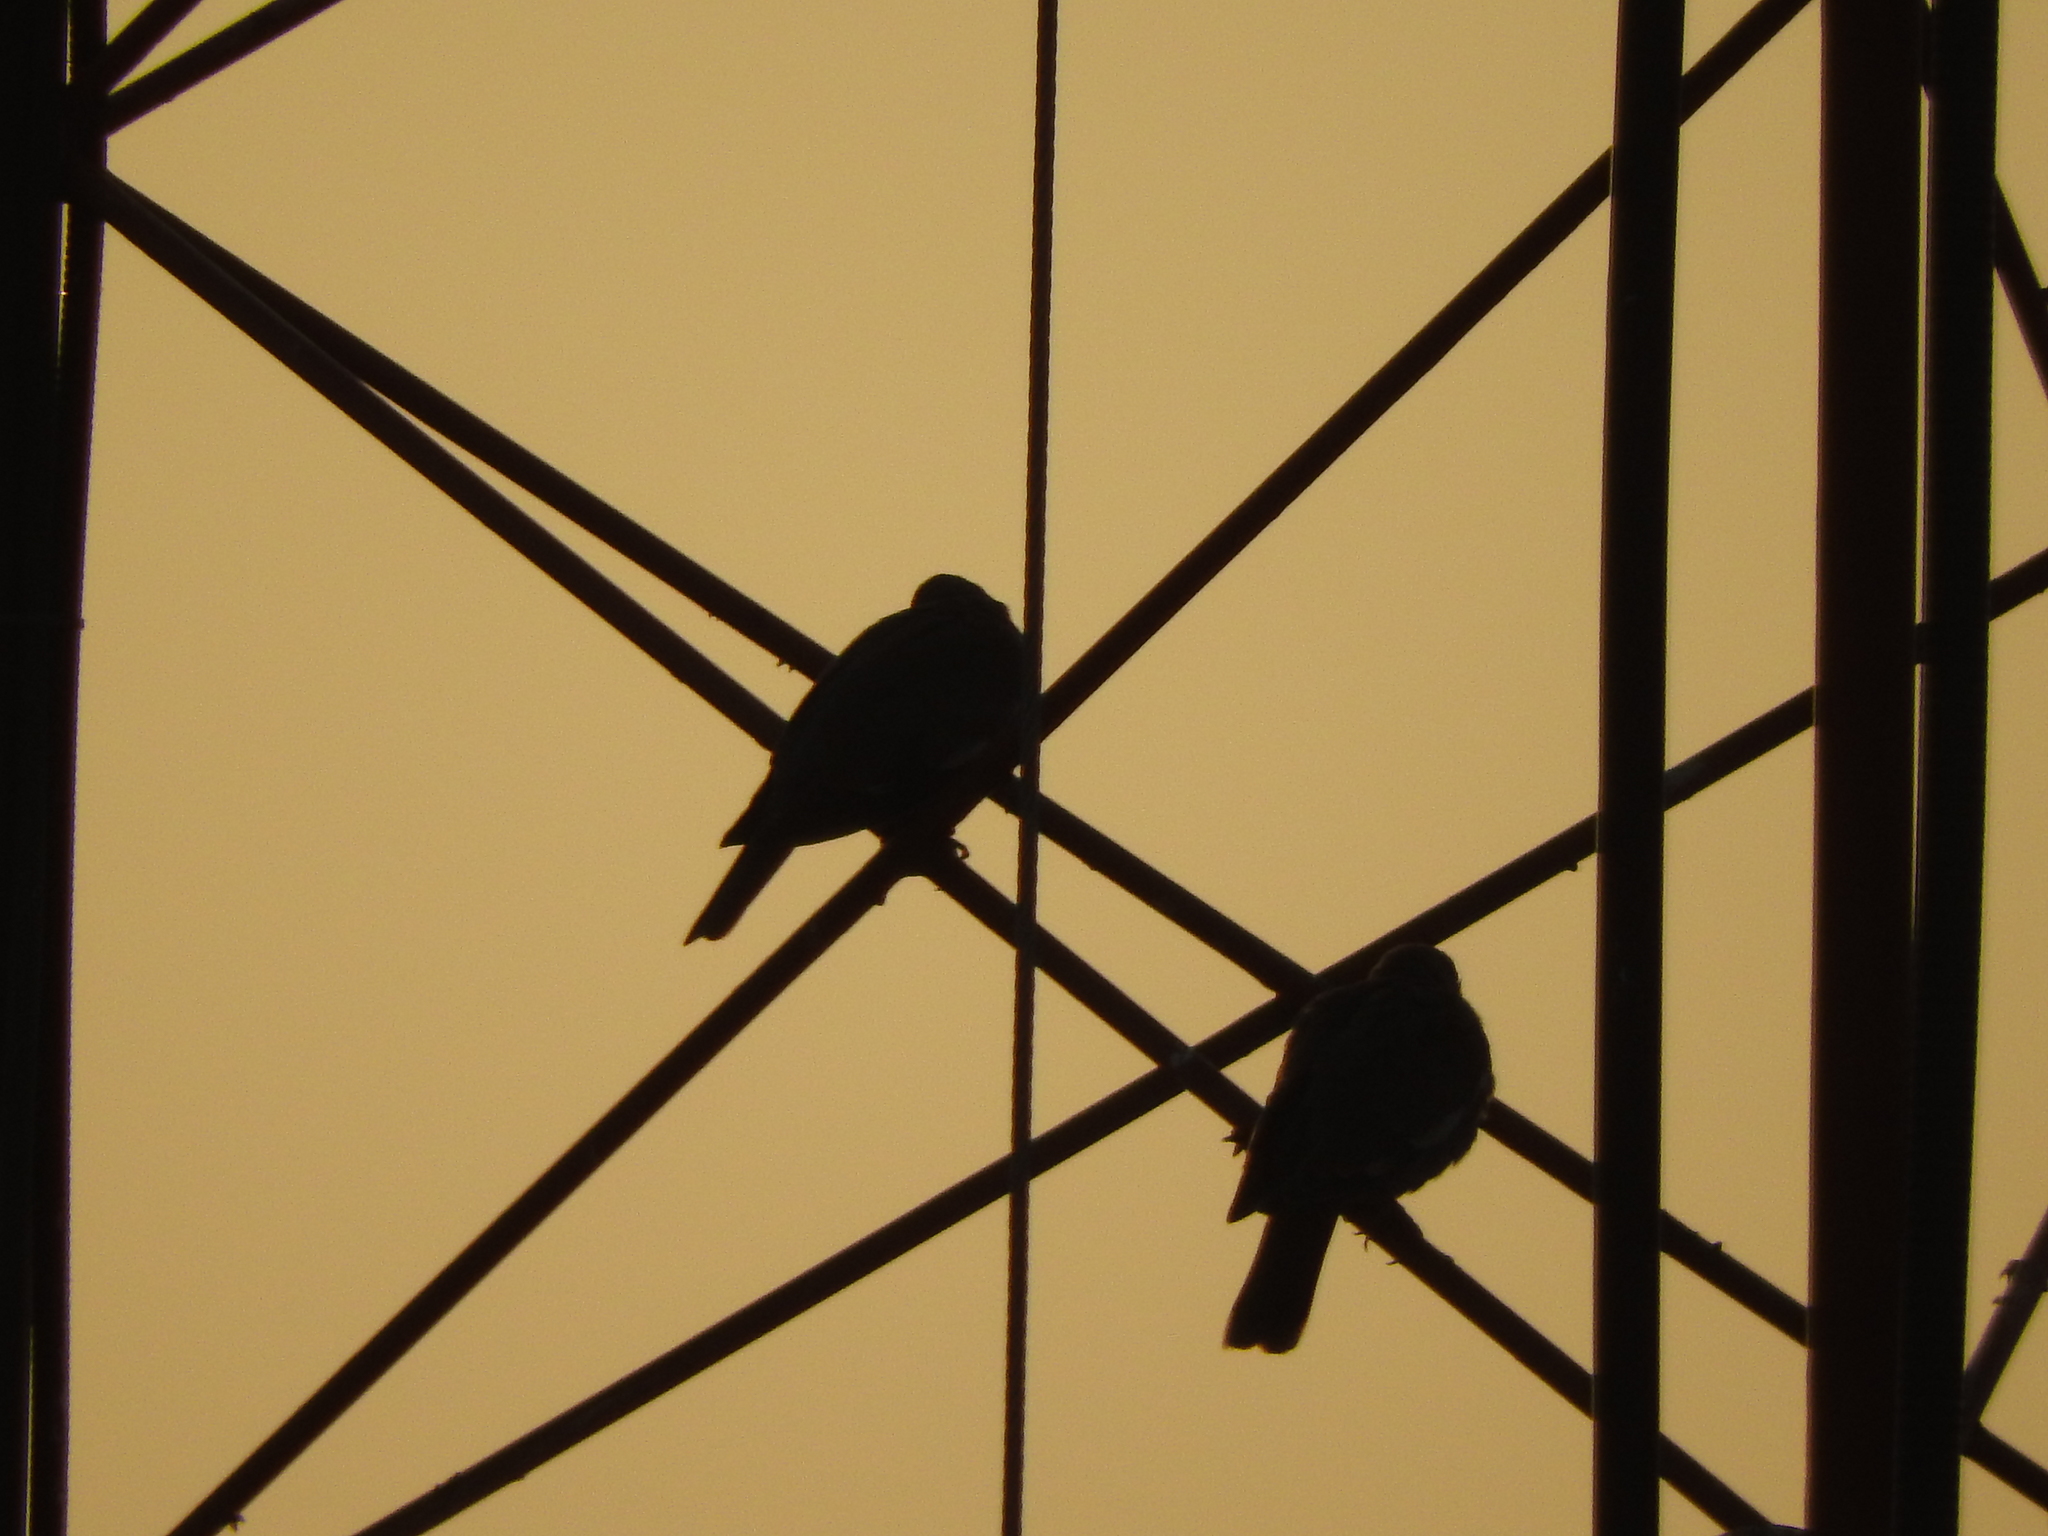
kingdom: Animalia
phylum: Chordata
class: Aves
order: Columbiformes
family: Columbidae
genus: Zenaida
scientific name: Zenaida asiatica
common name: White-winged dove
